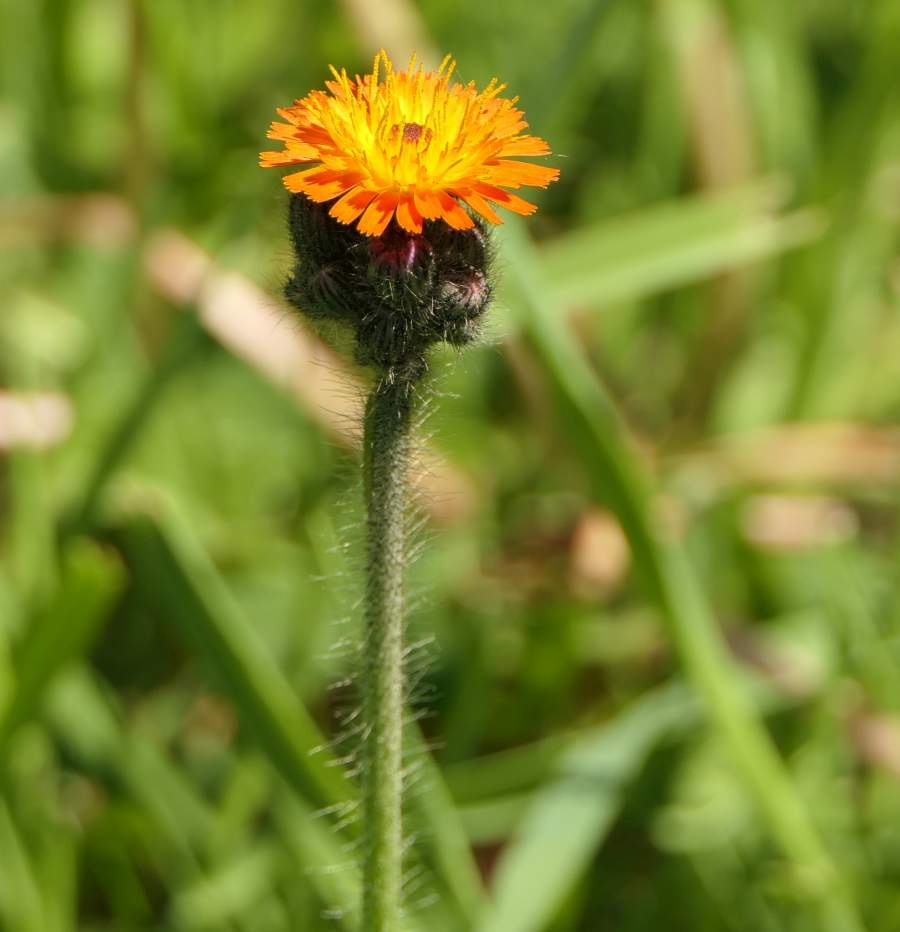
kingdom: Plantae
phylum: Tracheophyta
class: Magnoliopsida
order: Asterales
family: Asteraceae
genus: Pilosella
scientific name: Pilosella aurantiaca
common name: Fox-and-cubs
